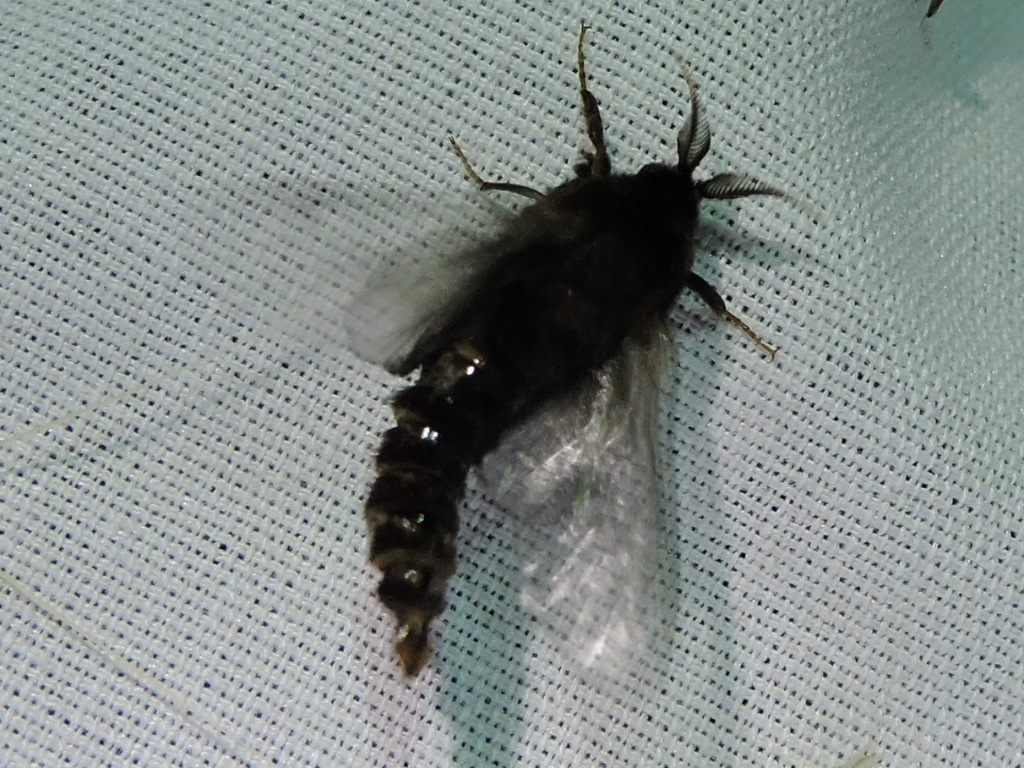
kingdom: Animalia
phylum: Arthropoda
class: Insecta
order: Lepidoptera
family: Psychidae
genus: Thyridopteryx
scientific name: Thyridopteryx ephemeraeformis
